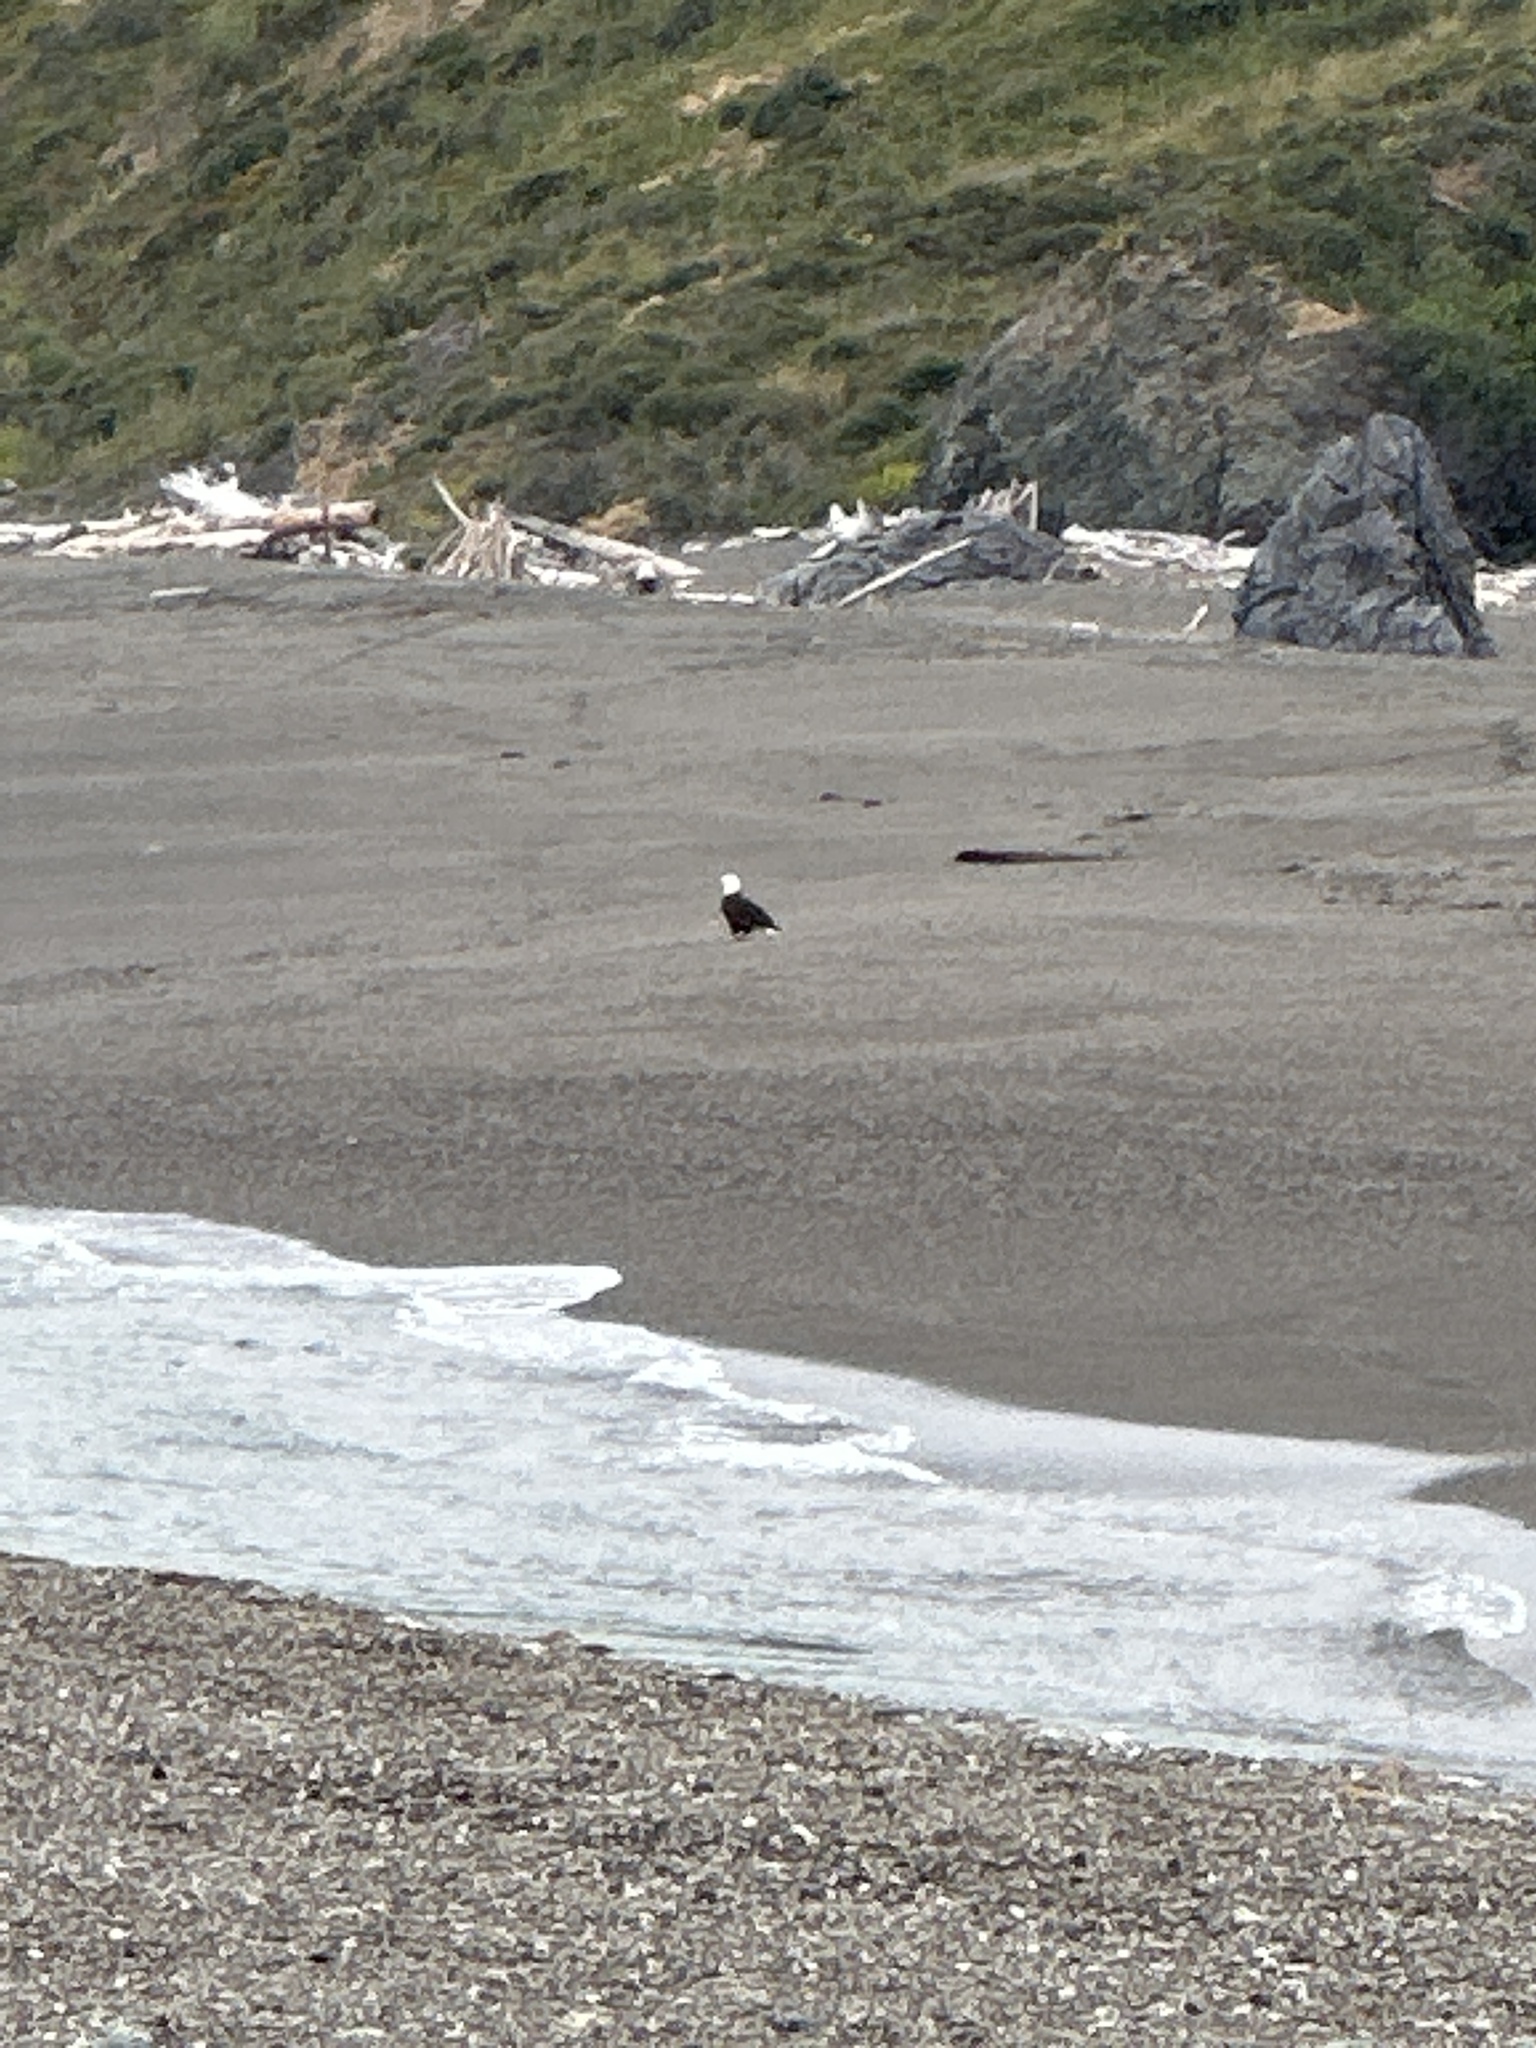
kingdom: Animalia
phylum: Chordata
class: Aves
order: Accipitriformes
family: Accipitridae
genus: Haliaeetus
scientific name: Haliaeetus leucocephalus
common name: Bald eagle
